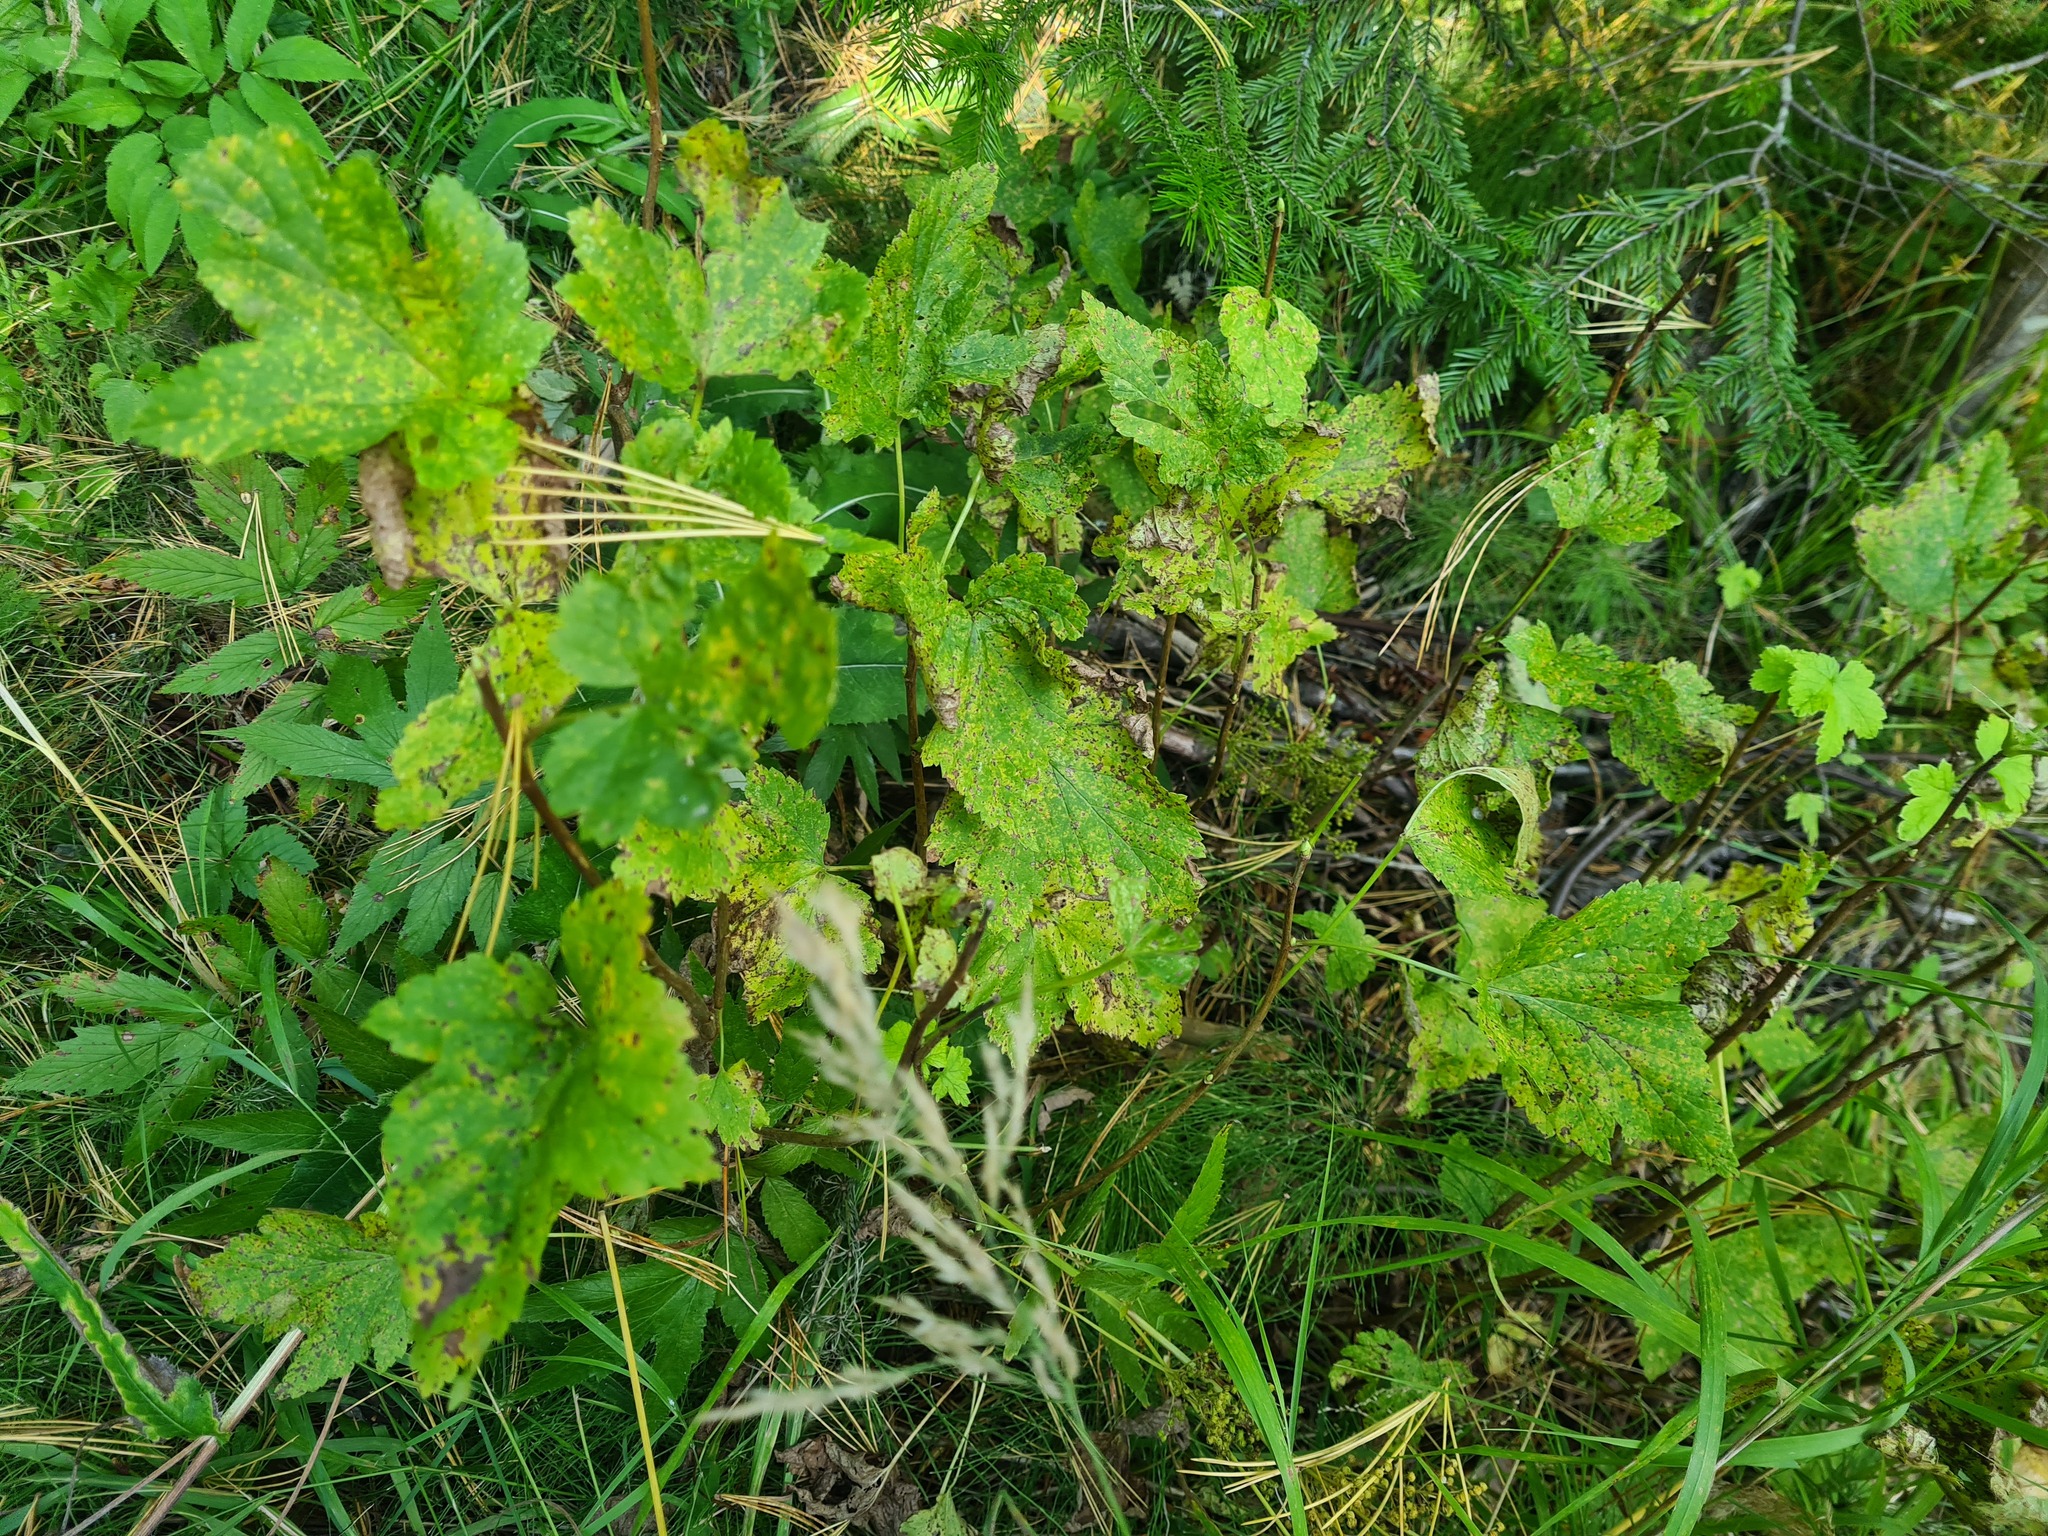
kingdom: Plantae
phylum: Tracheophyta
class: Magnoliopsida
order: Apiales
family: Apiaceae
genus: Heracleum
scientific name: Heracleum sosnowskyi
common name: Sosnowsky's hogweed
